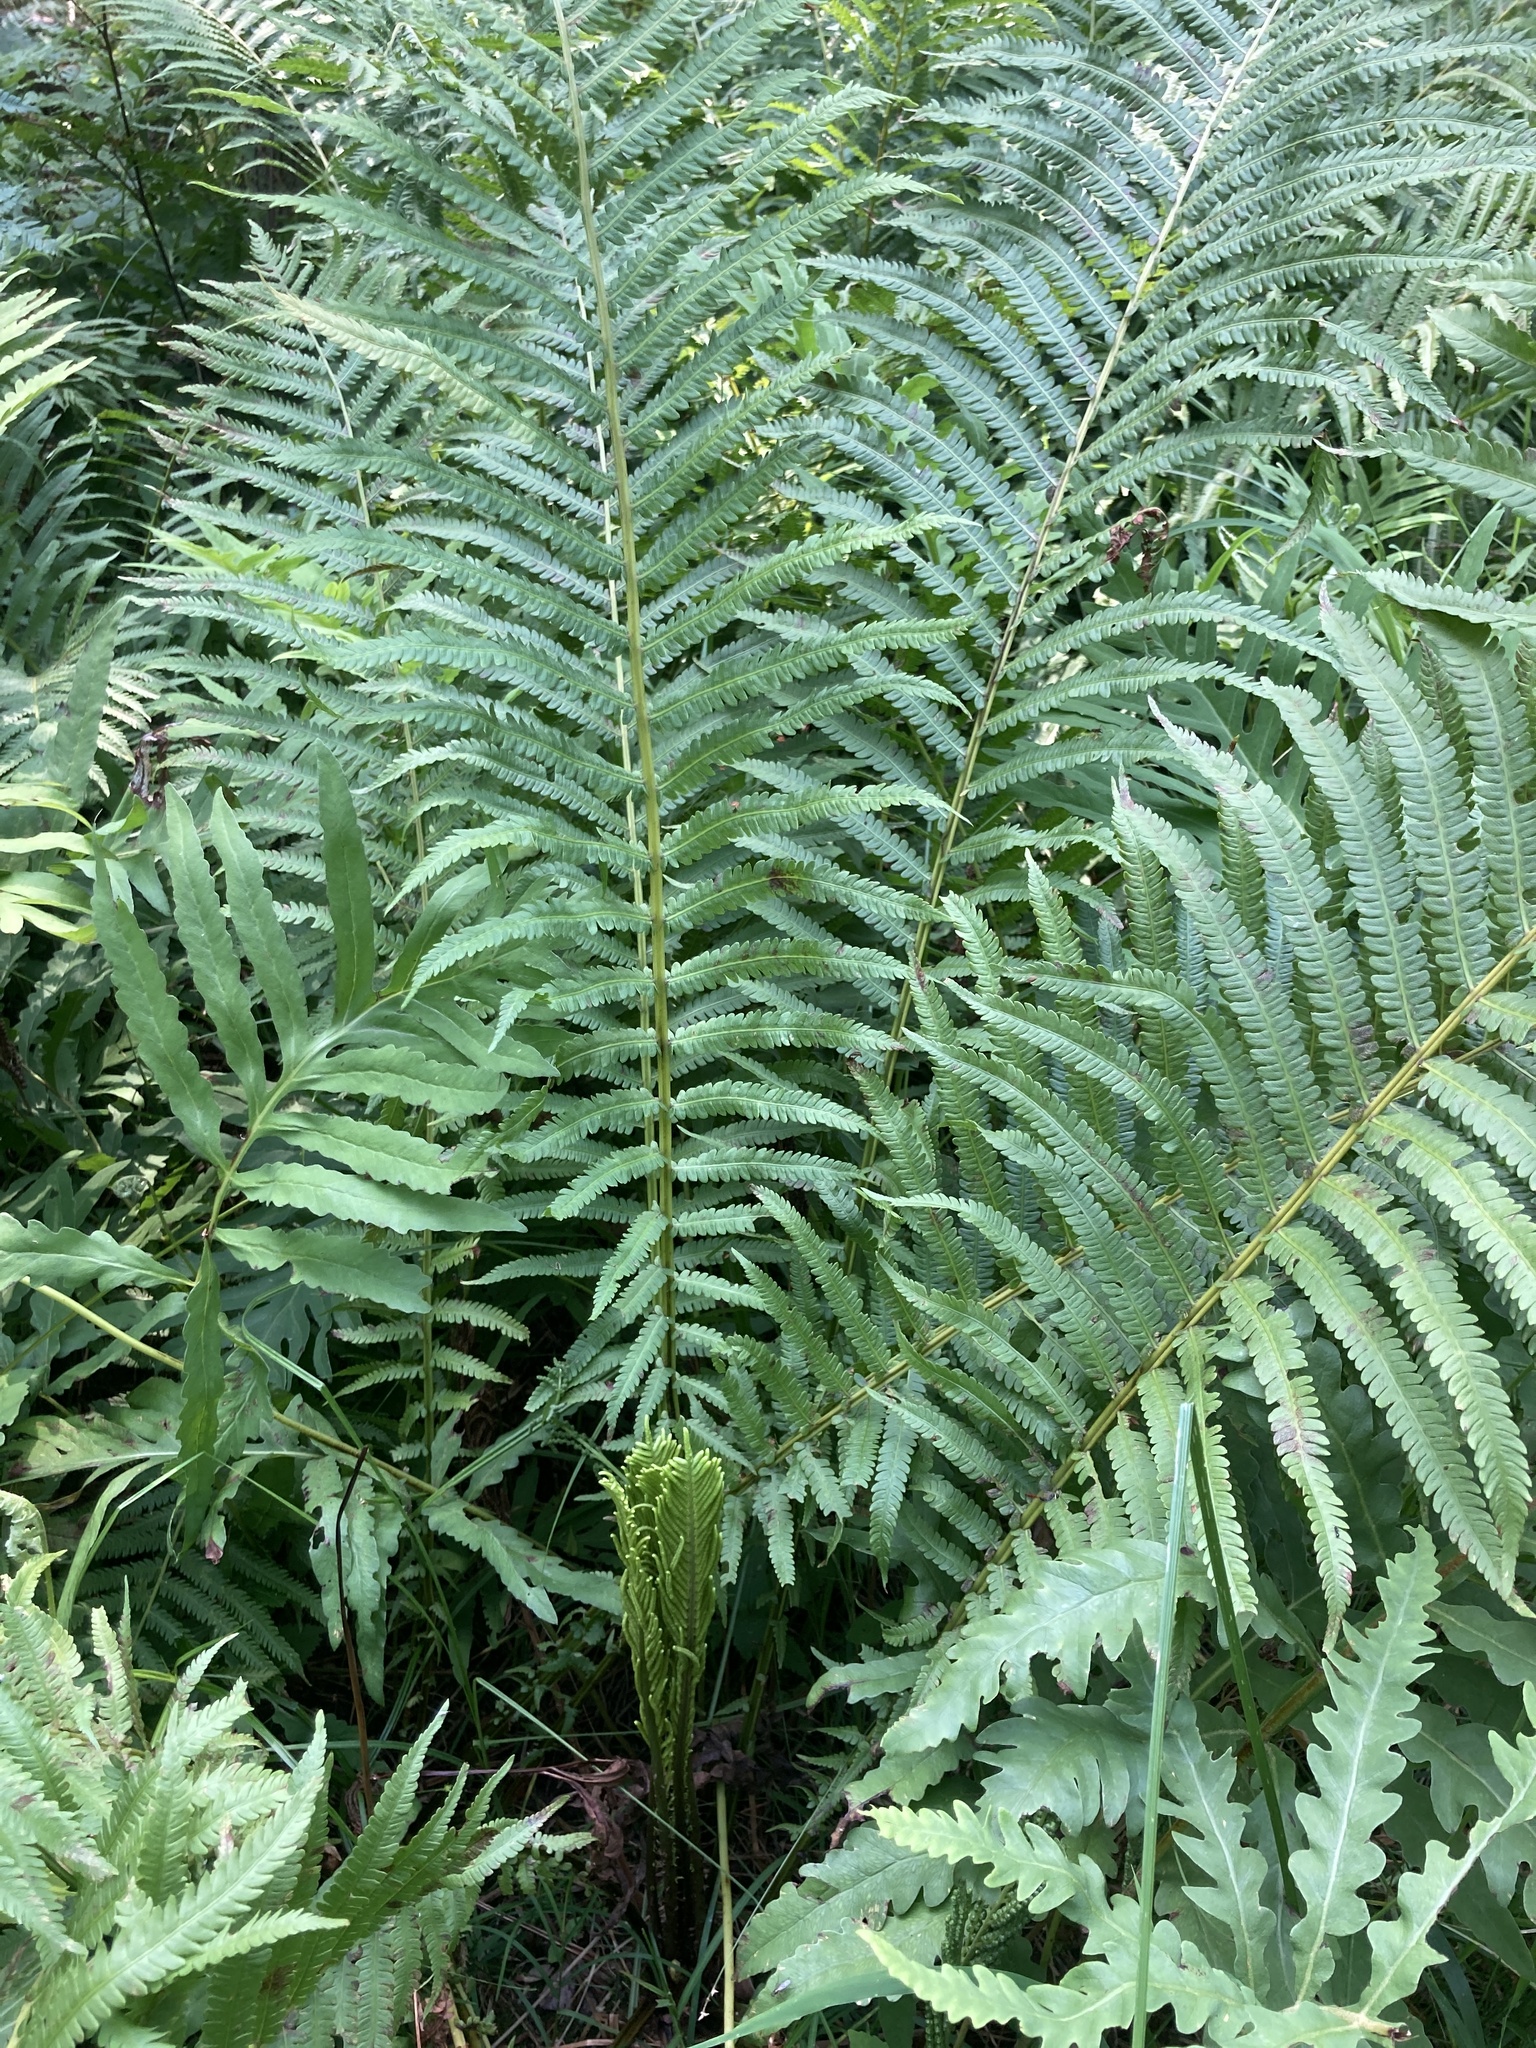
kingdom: Plantae
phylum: Tracheophyta
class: Polypodiopsida
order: Polypodiales
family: Onocleaceae
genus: Matteuccia
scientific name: Matteuccia struthiopteris
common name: Ostrich fern
